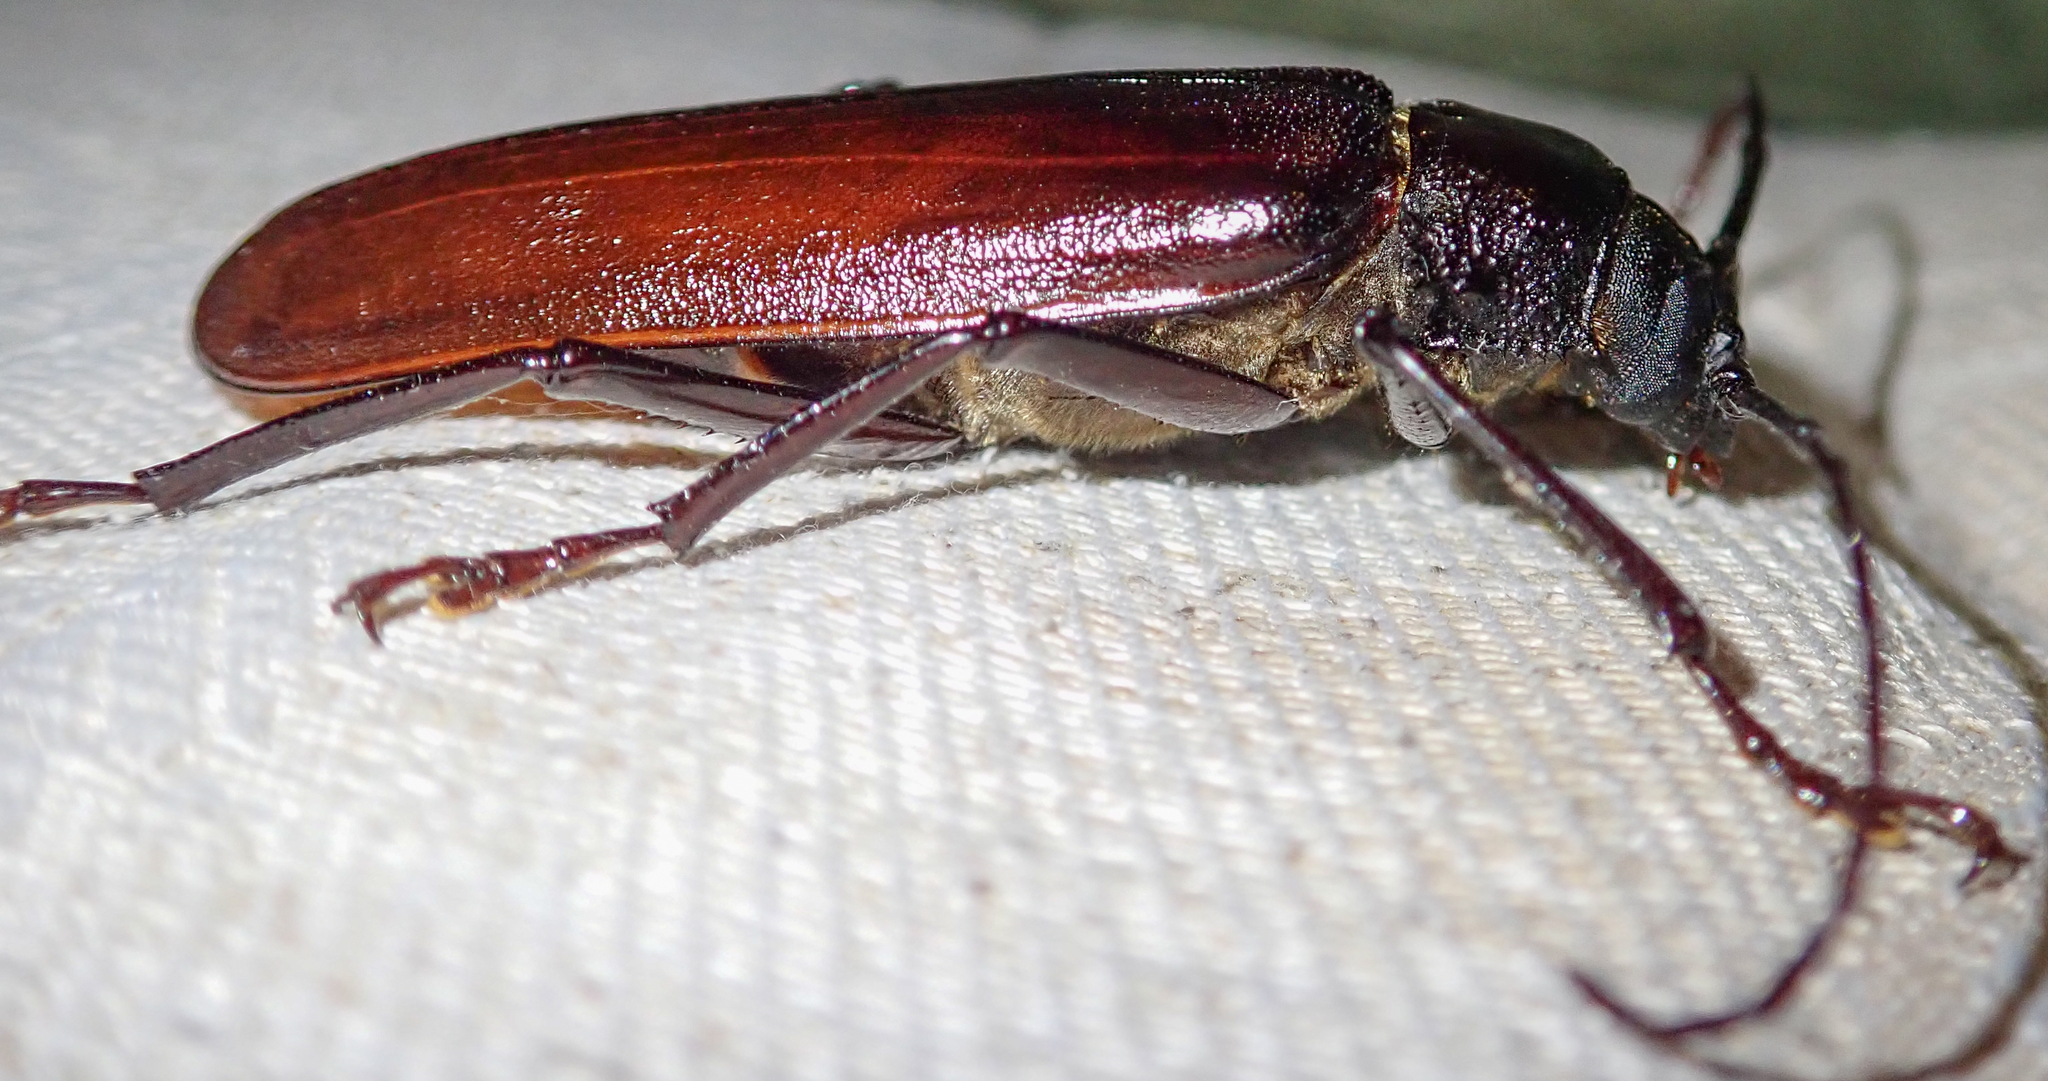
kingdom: Animalia
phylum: Arthropoda
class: Insecta
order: Coleoptera
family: Cerambycidae
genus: Macrotoma
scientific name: Macrotoma palmata
